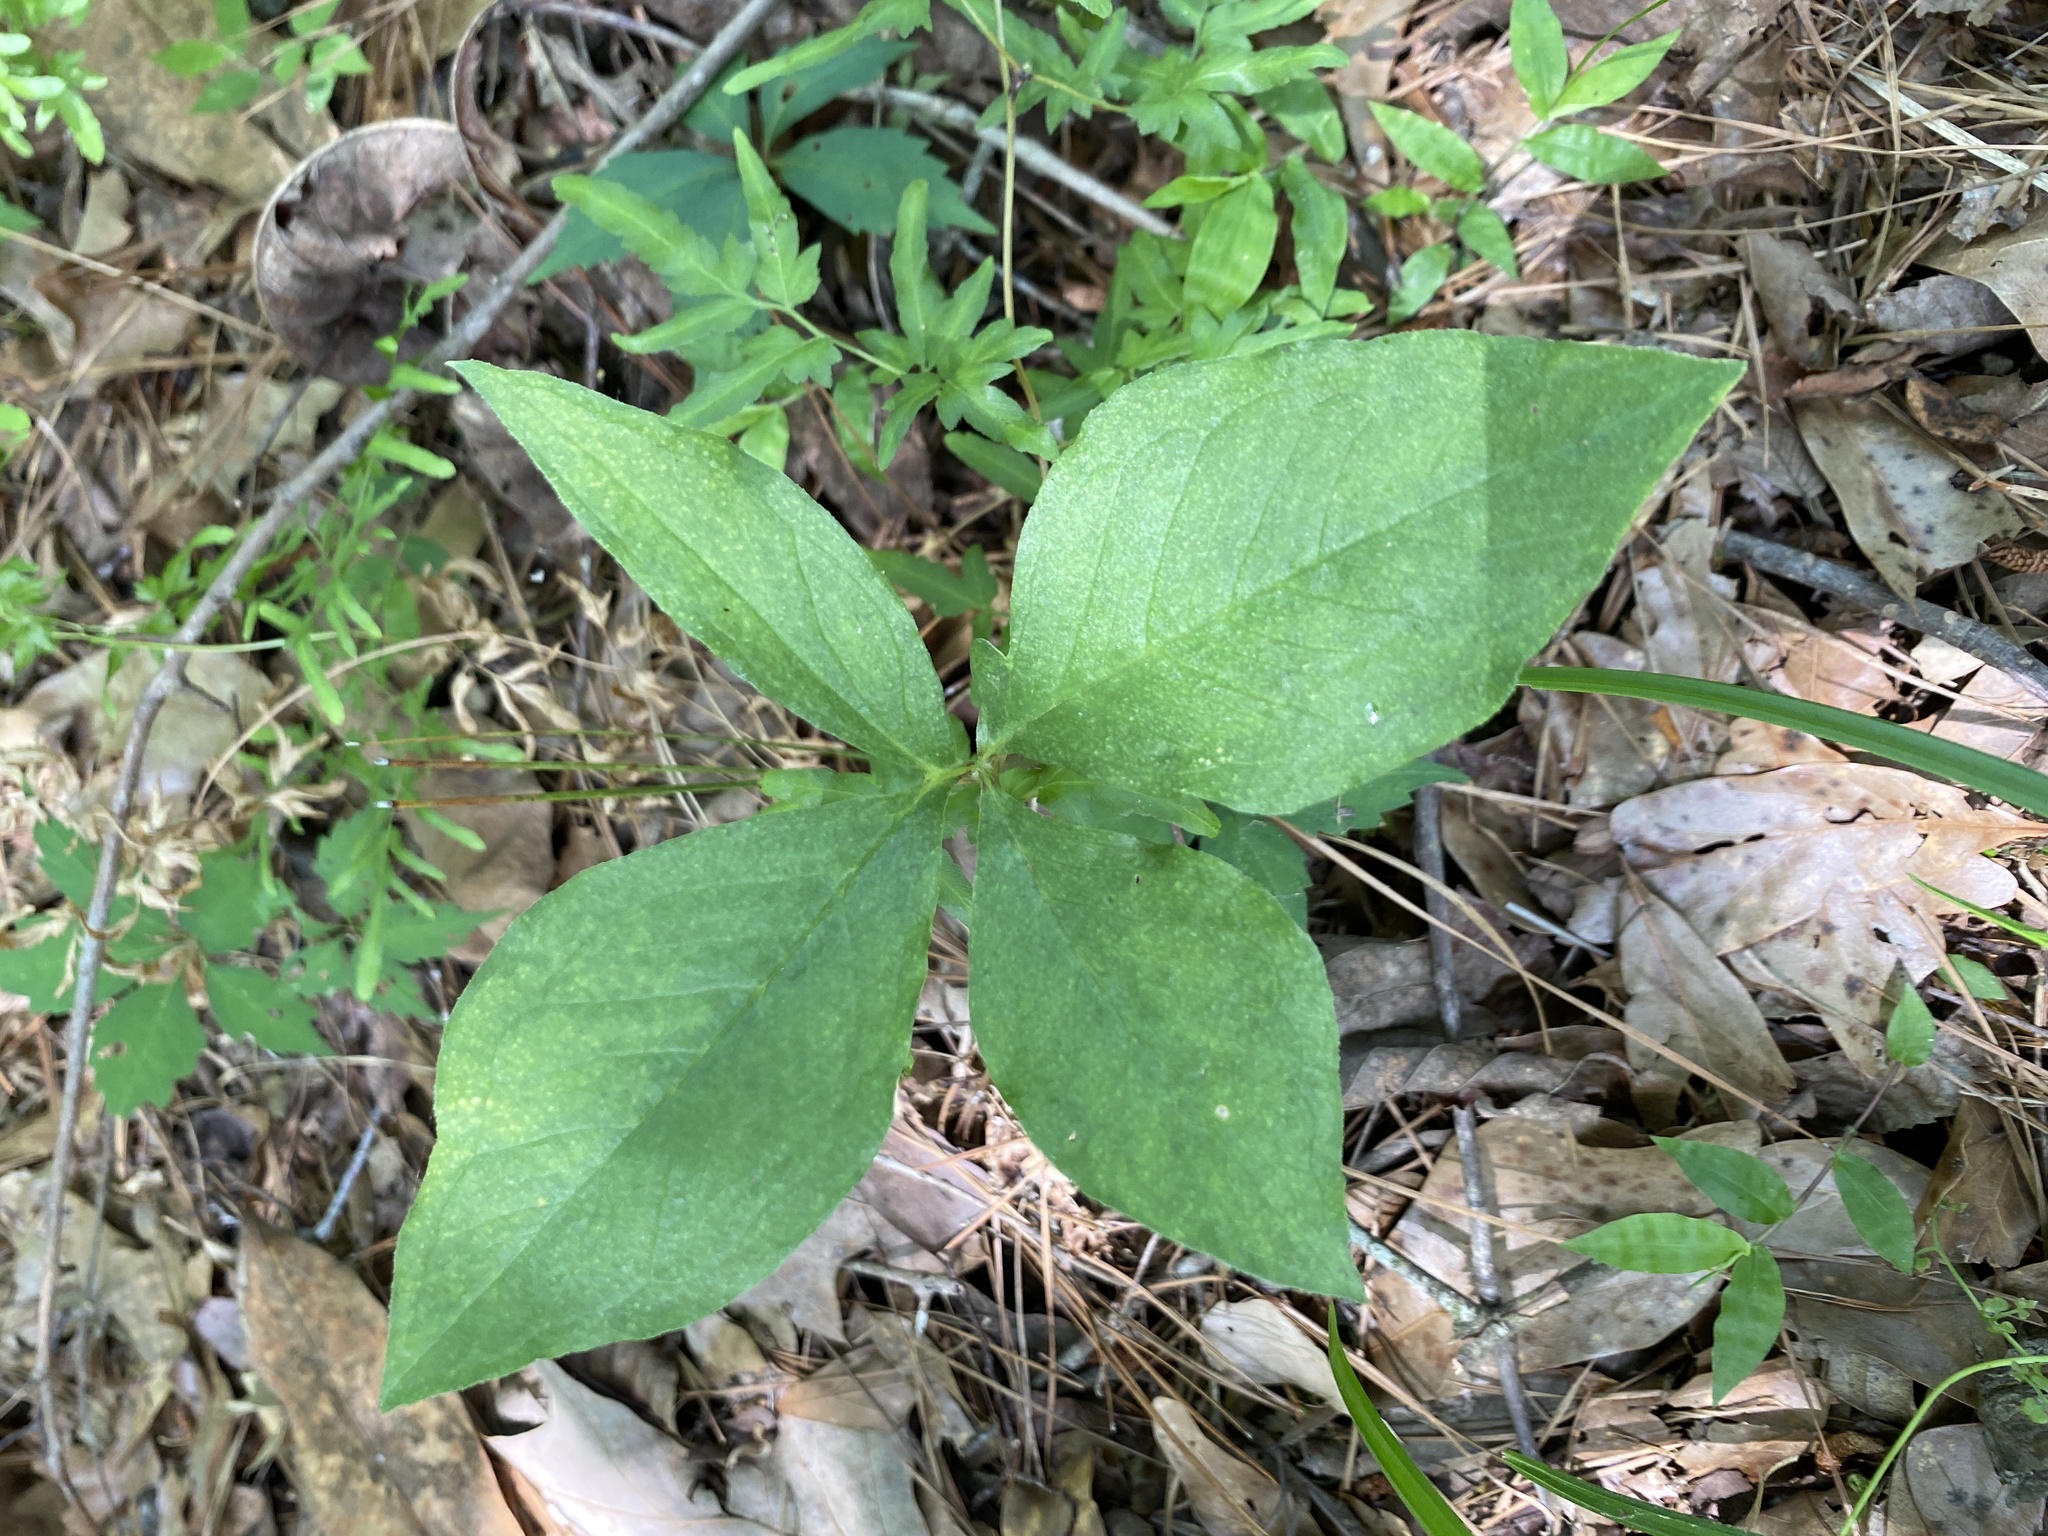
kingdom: Plantae
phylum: Tracheophyta
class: Liliopsida
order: Alismatales
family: Araceae
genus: Arisaema
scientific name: Arisaema quinatum
